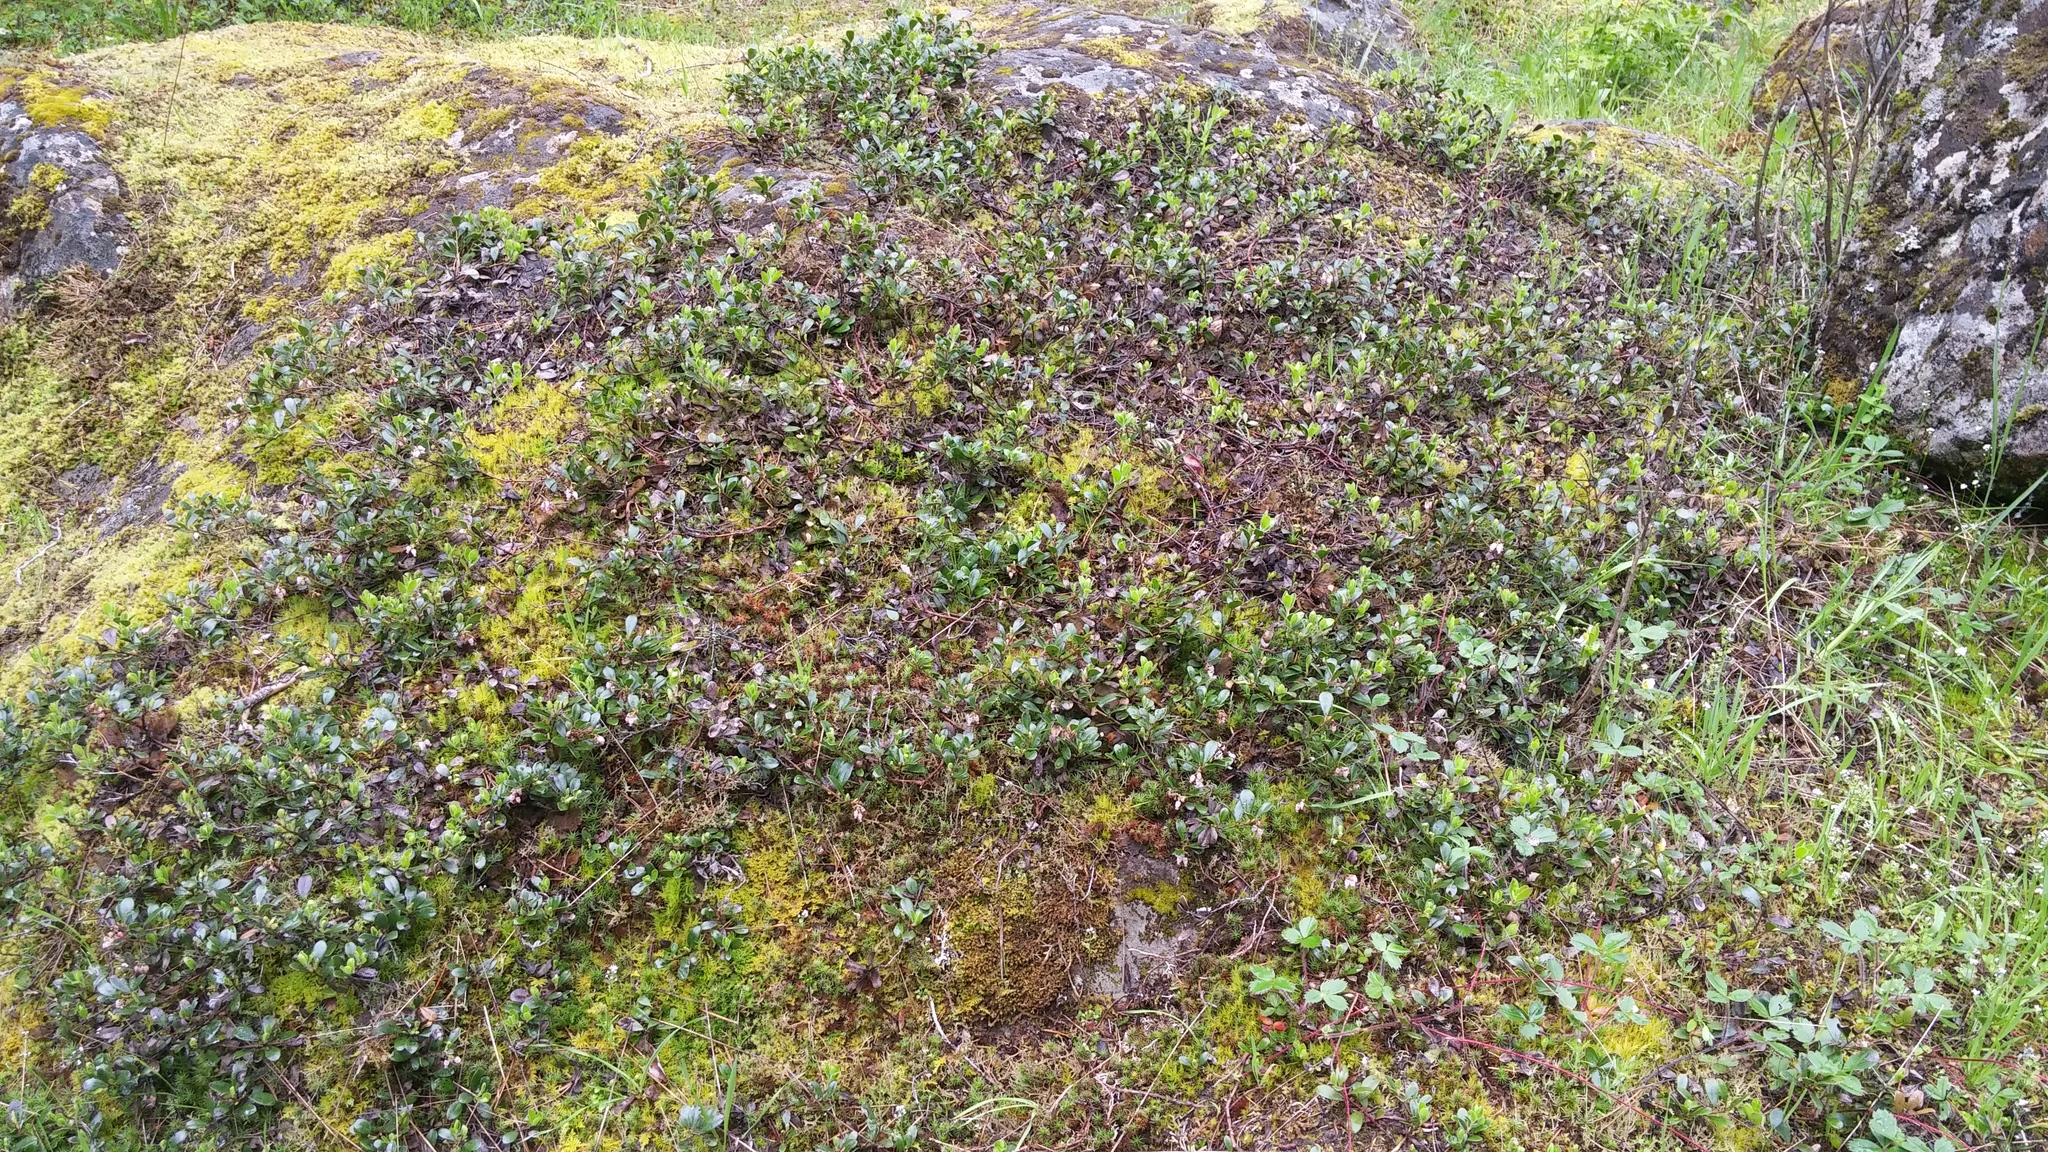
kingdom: Plantae
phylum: Tracheophyta
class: Magnoliopsida
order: Ericales
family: Ericaceae
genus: Arctostaphylos
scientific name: Arctostaphylos uva-ursi
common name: Bearberry
